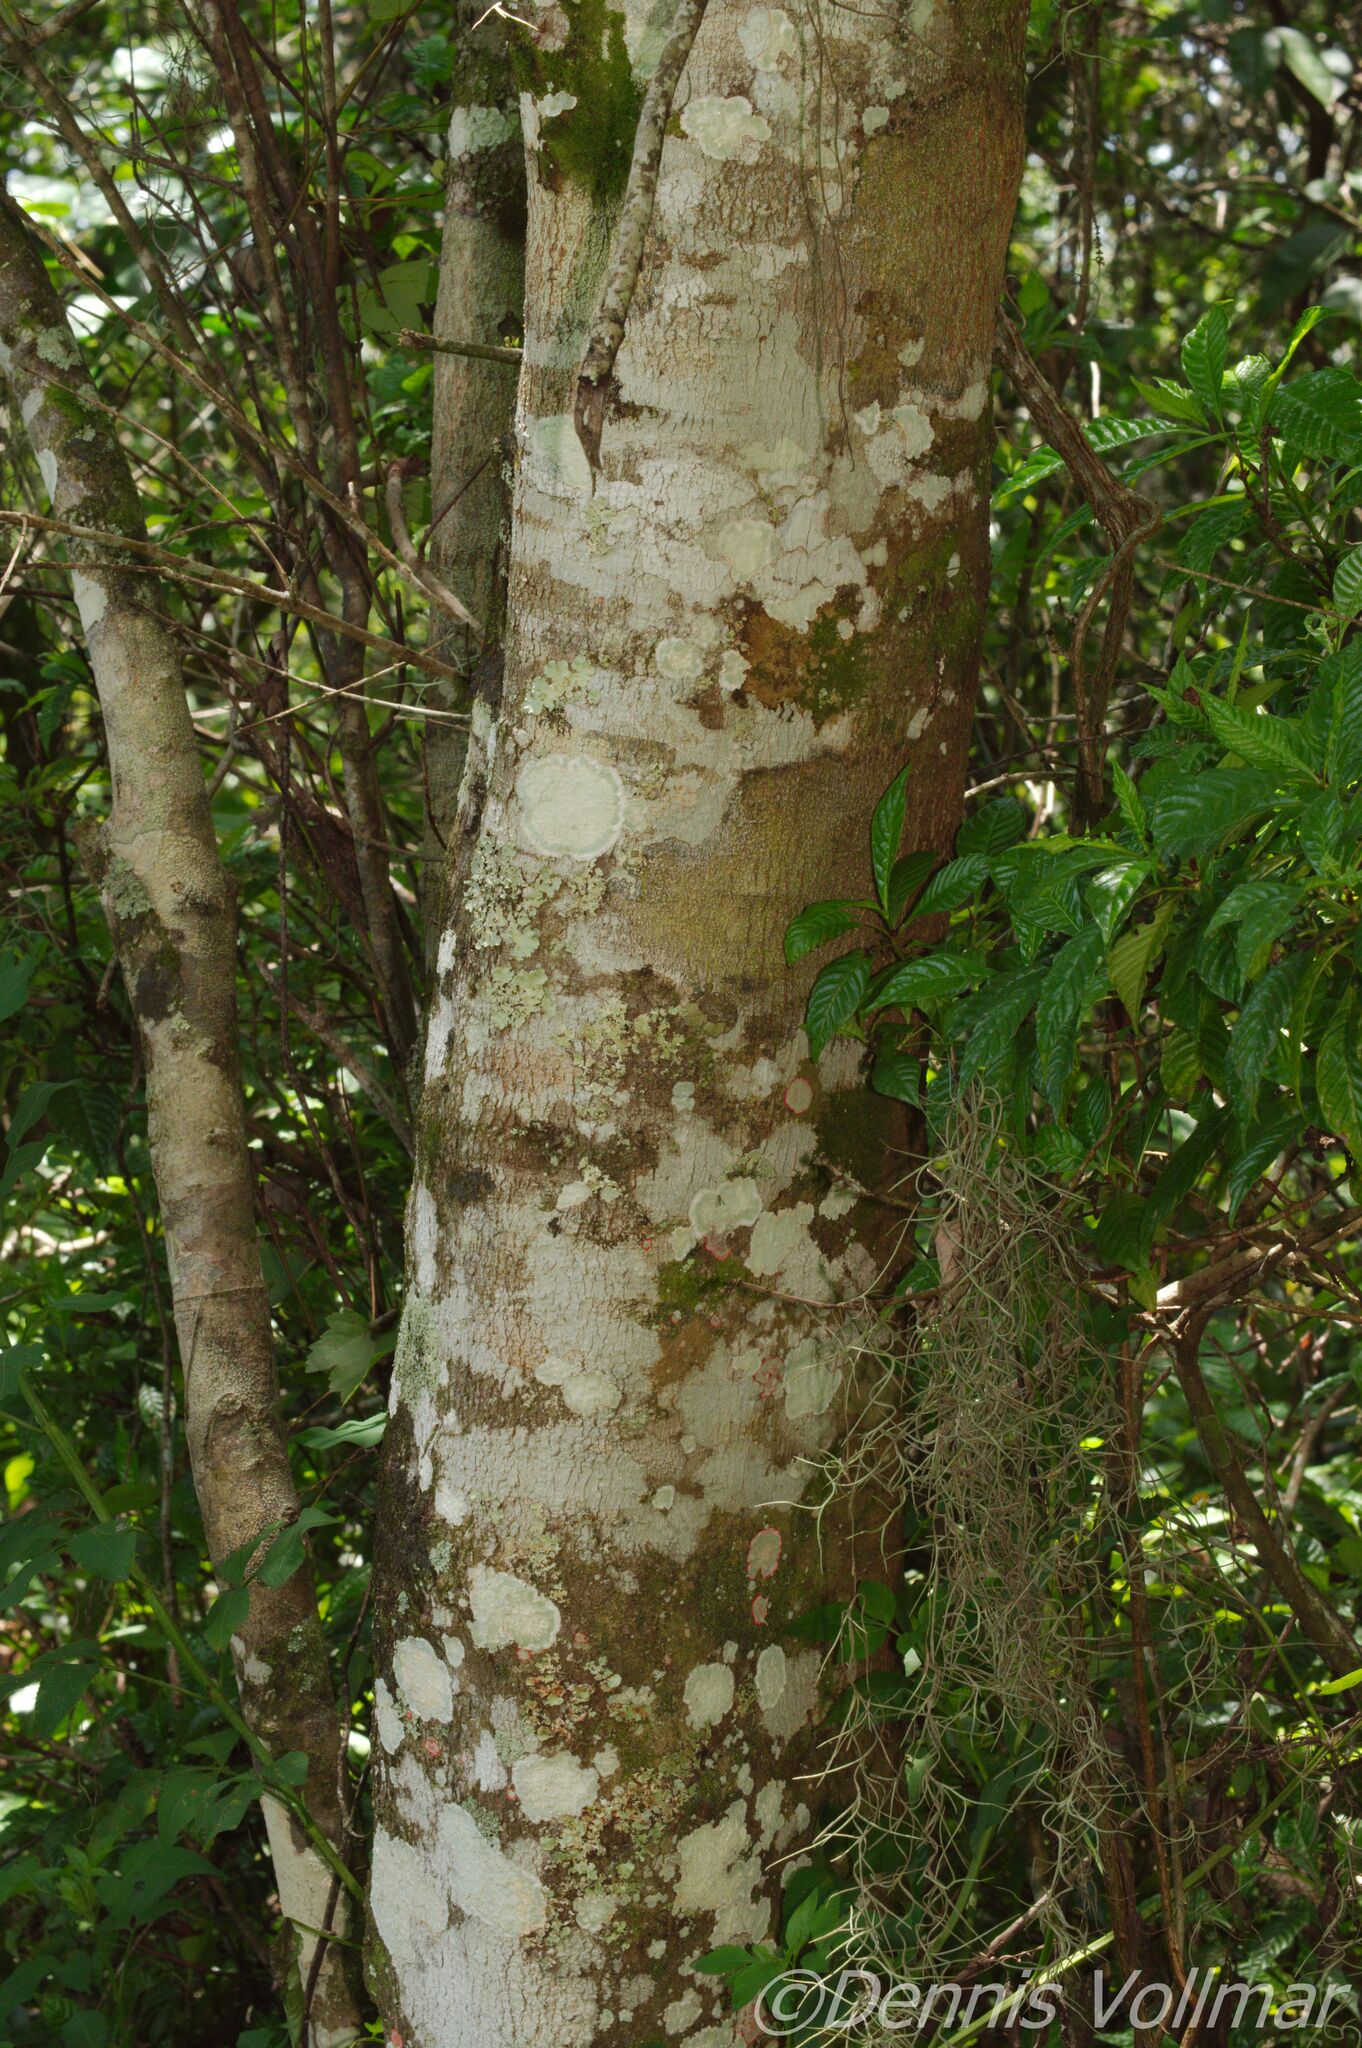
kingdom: Plantae
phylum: Tracheophyta
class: Magnoliopsida
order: Sapindales
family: Sapindaceae
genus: Acer
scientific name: Acer rubrum
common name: Red maple
